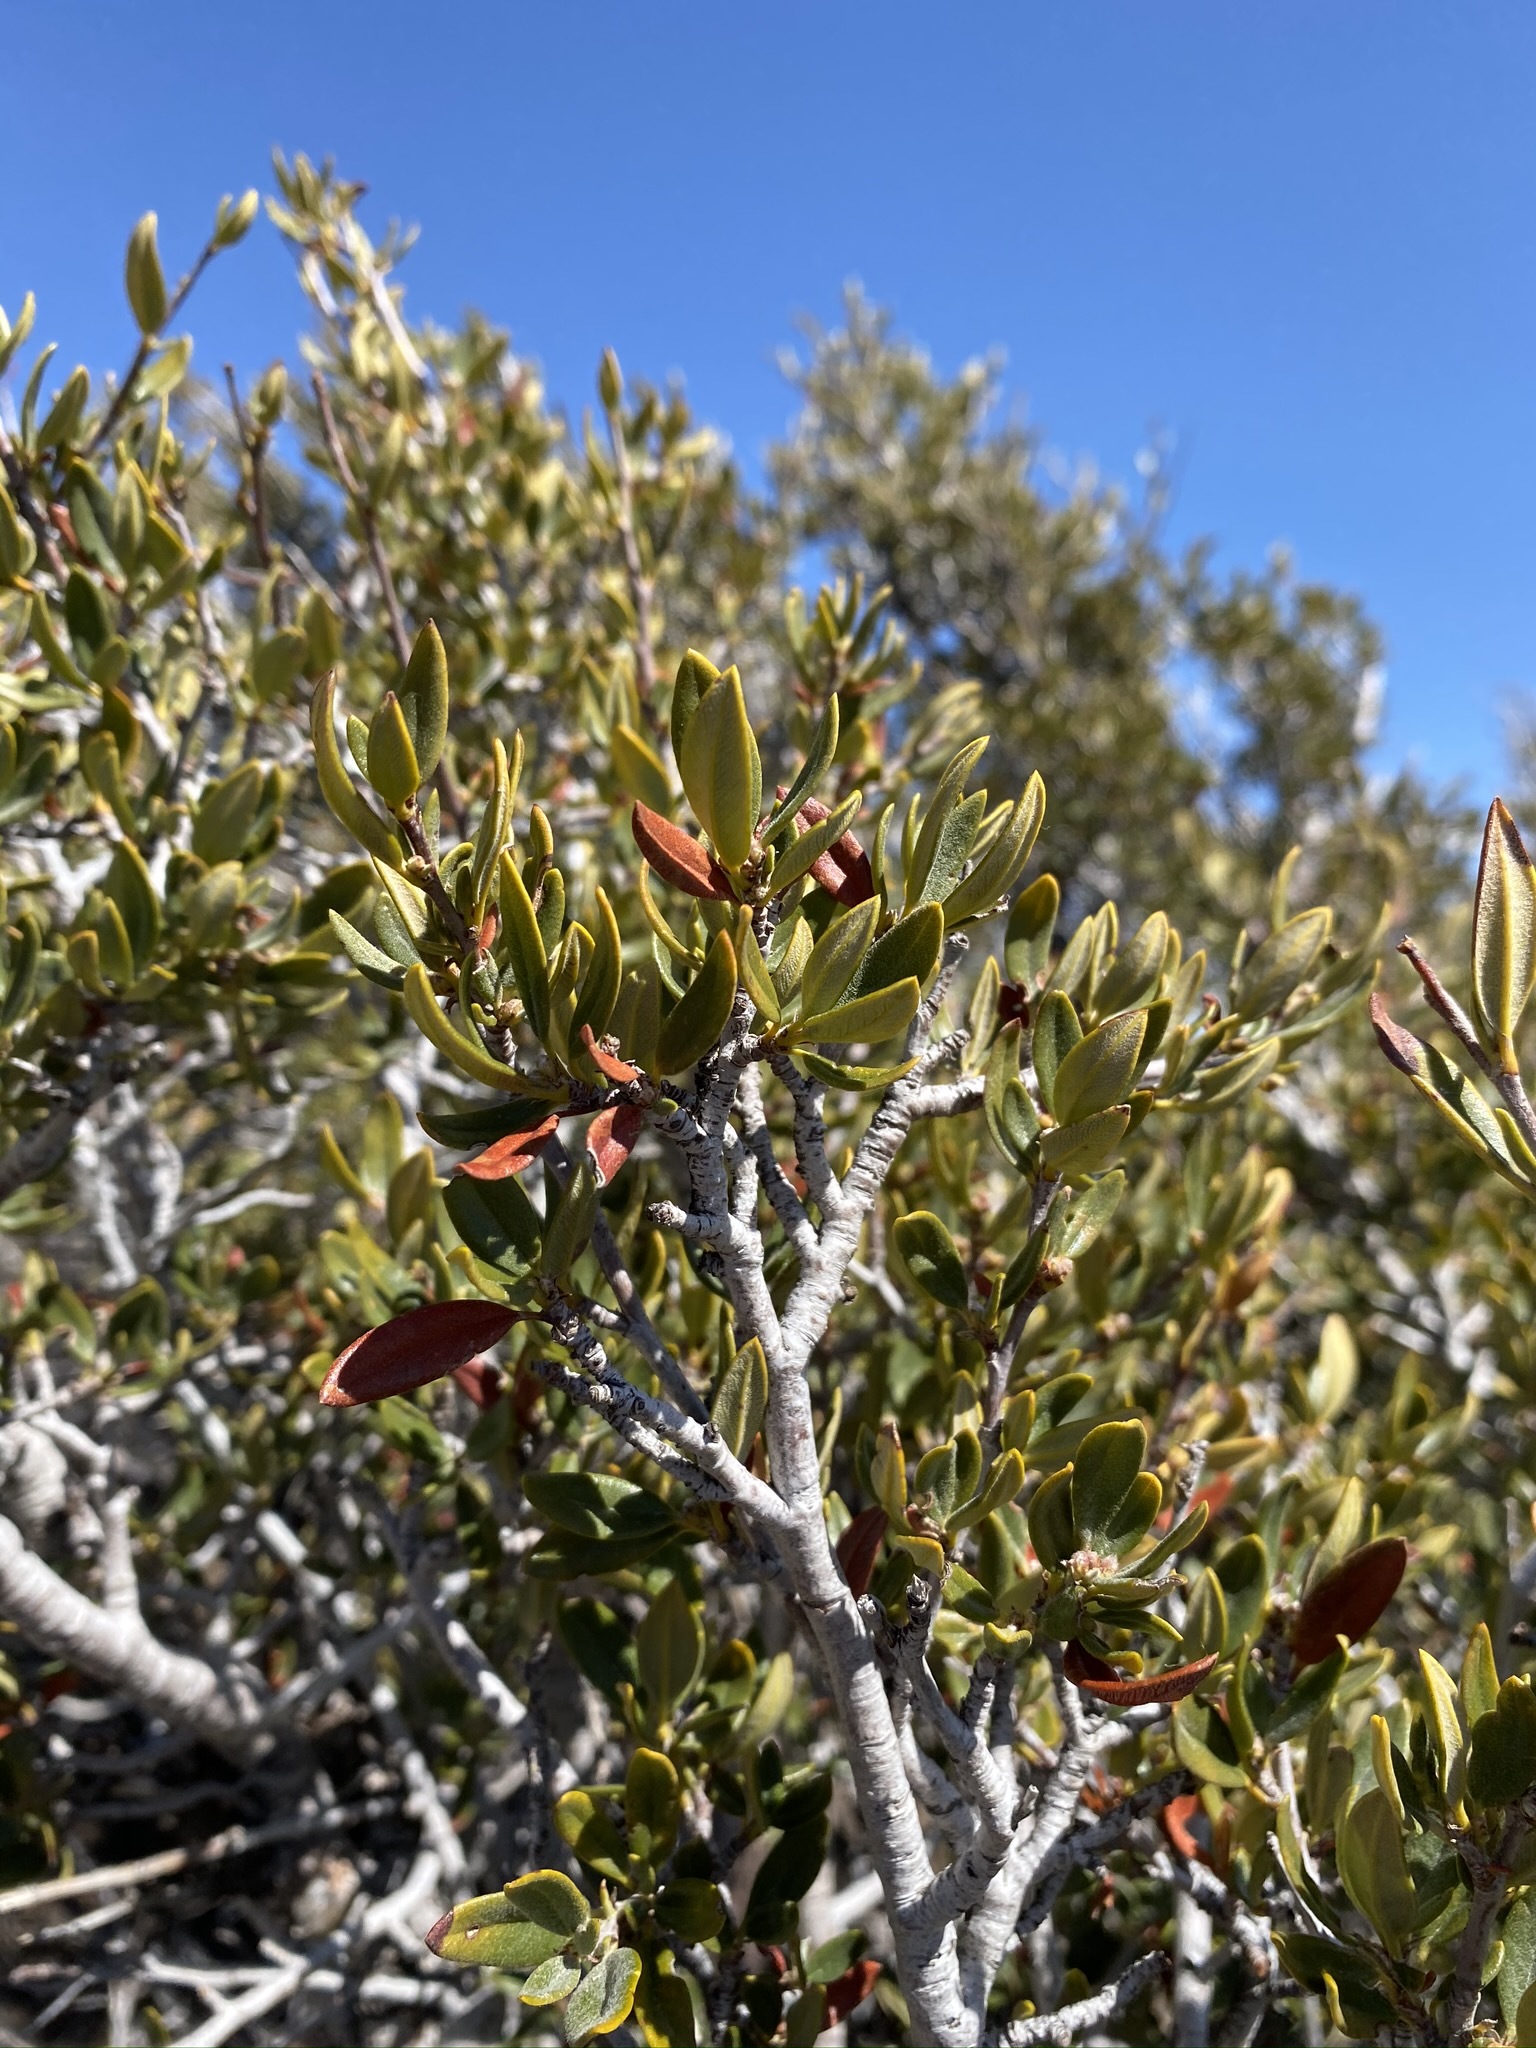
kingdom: Plantae
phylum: Tracheophyta
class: Magnoliopsida
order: Rosales
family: Rosaceae
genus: Cercocarpus
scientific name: Cercocarpus ledifolius
